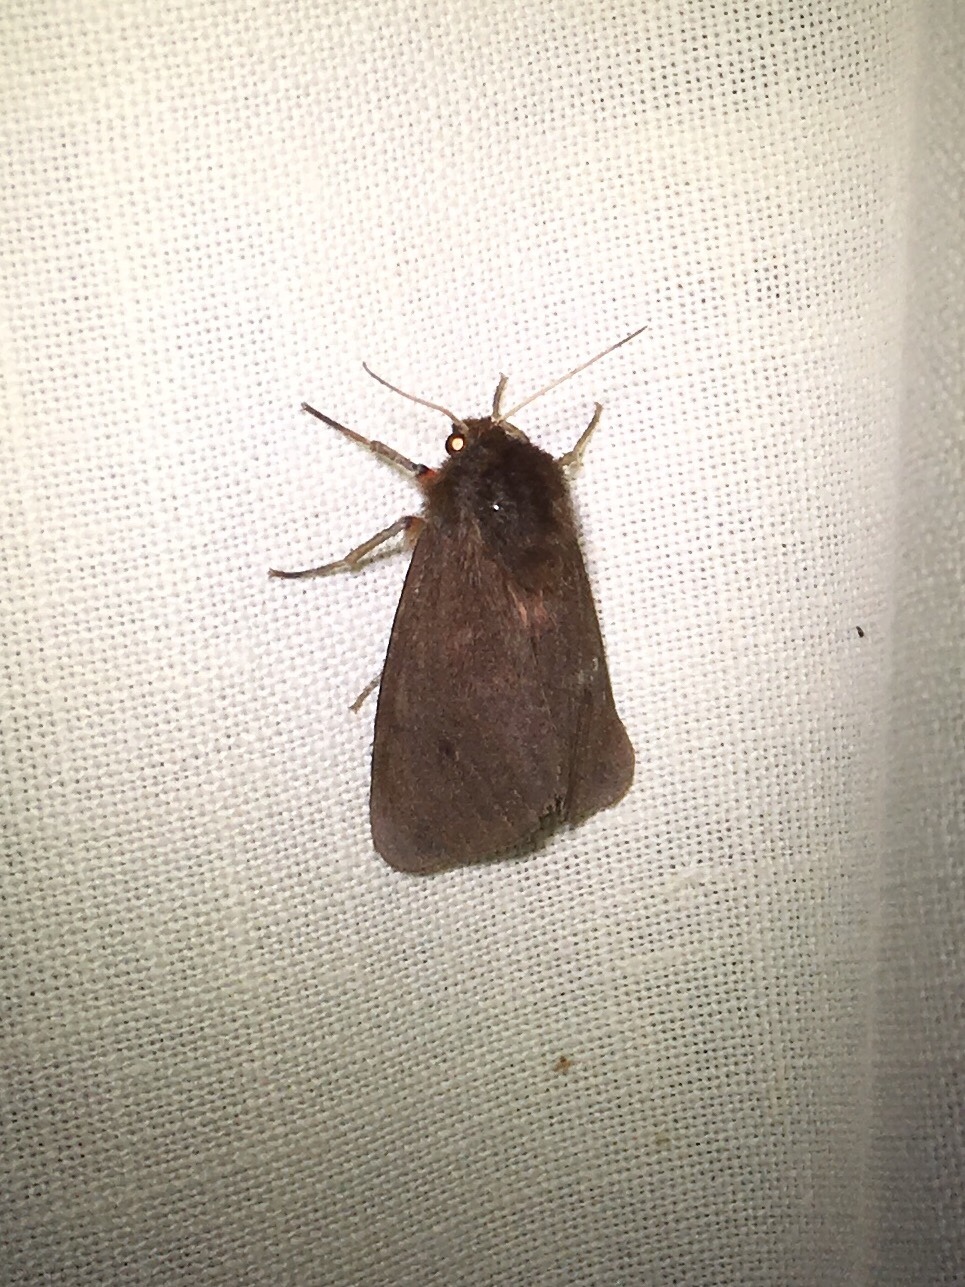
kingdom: Animalia
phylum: Arthropoda
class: Insecta
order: Lepidoptera
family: Erebidae
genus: Phragmatobia
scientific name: Phragmatobia fuliginosa
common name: Ruby tiger
